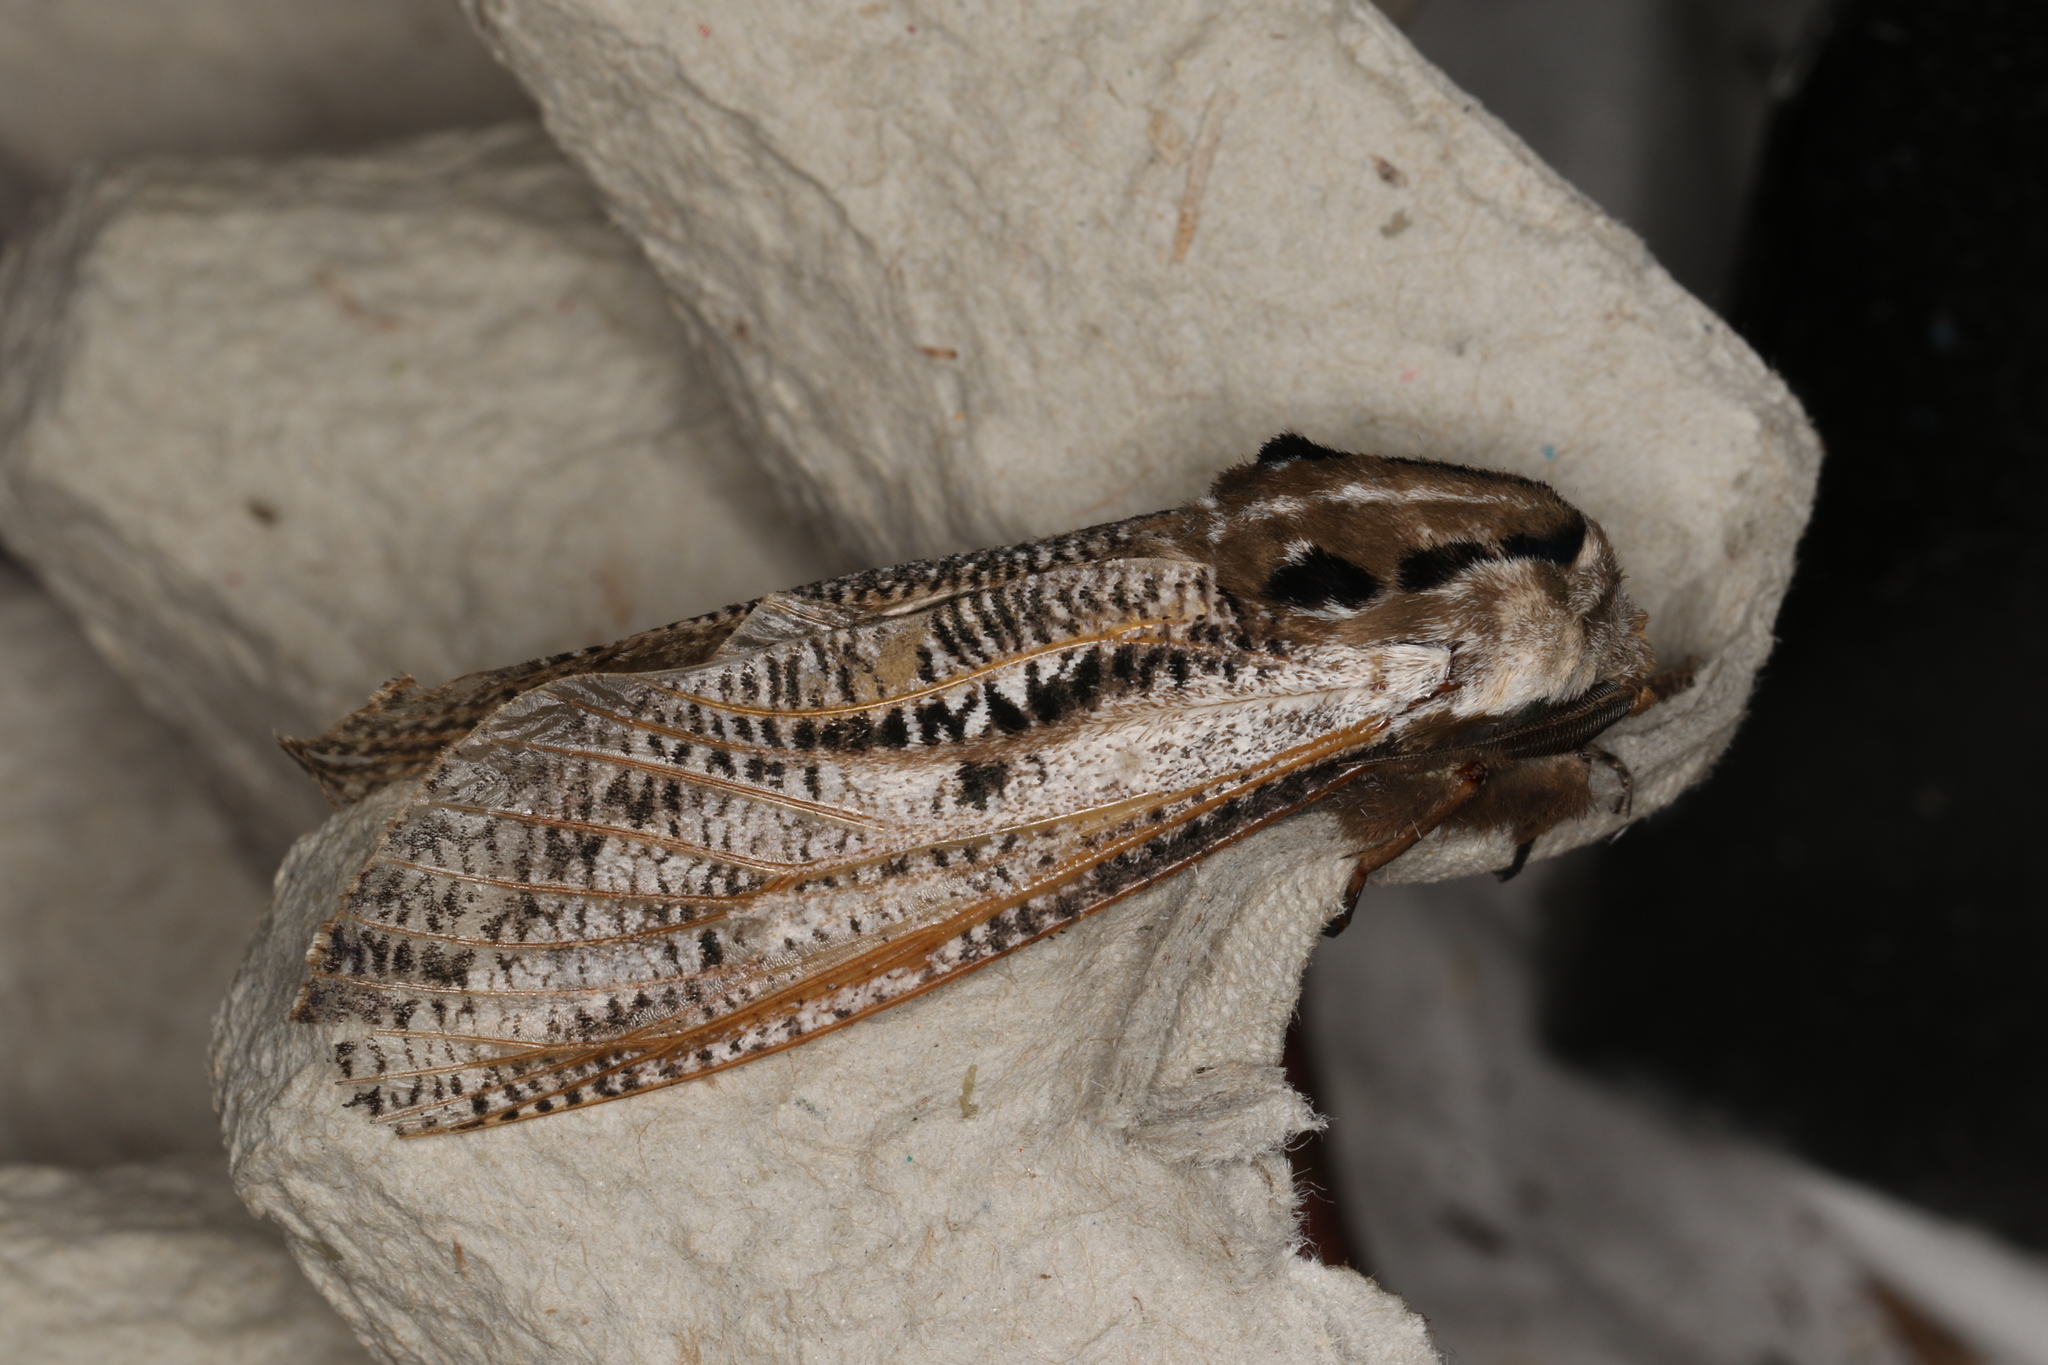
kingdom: Animalia
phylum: Arthropoda
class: Insecta
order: Lepidoptera
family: Cossidae
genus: Endoxyla
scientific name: Endoxyla liturata
